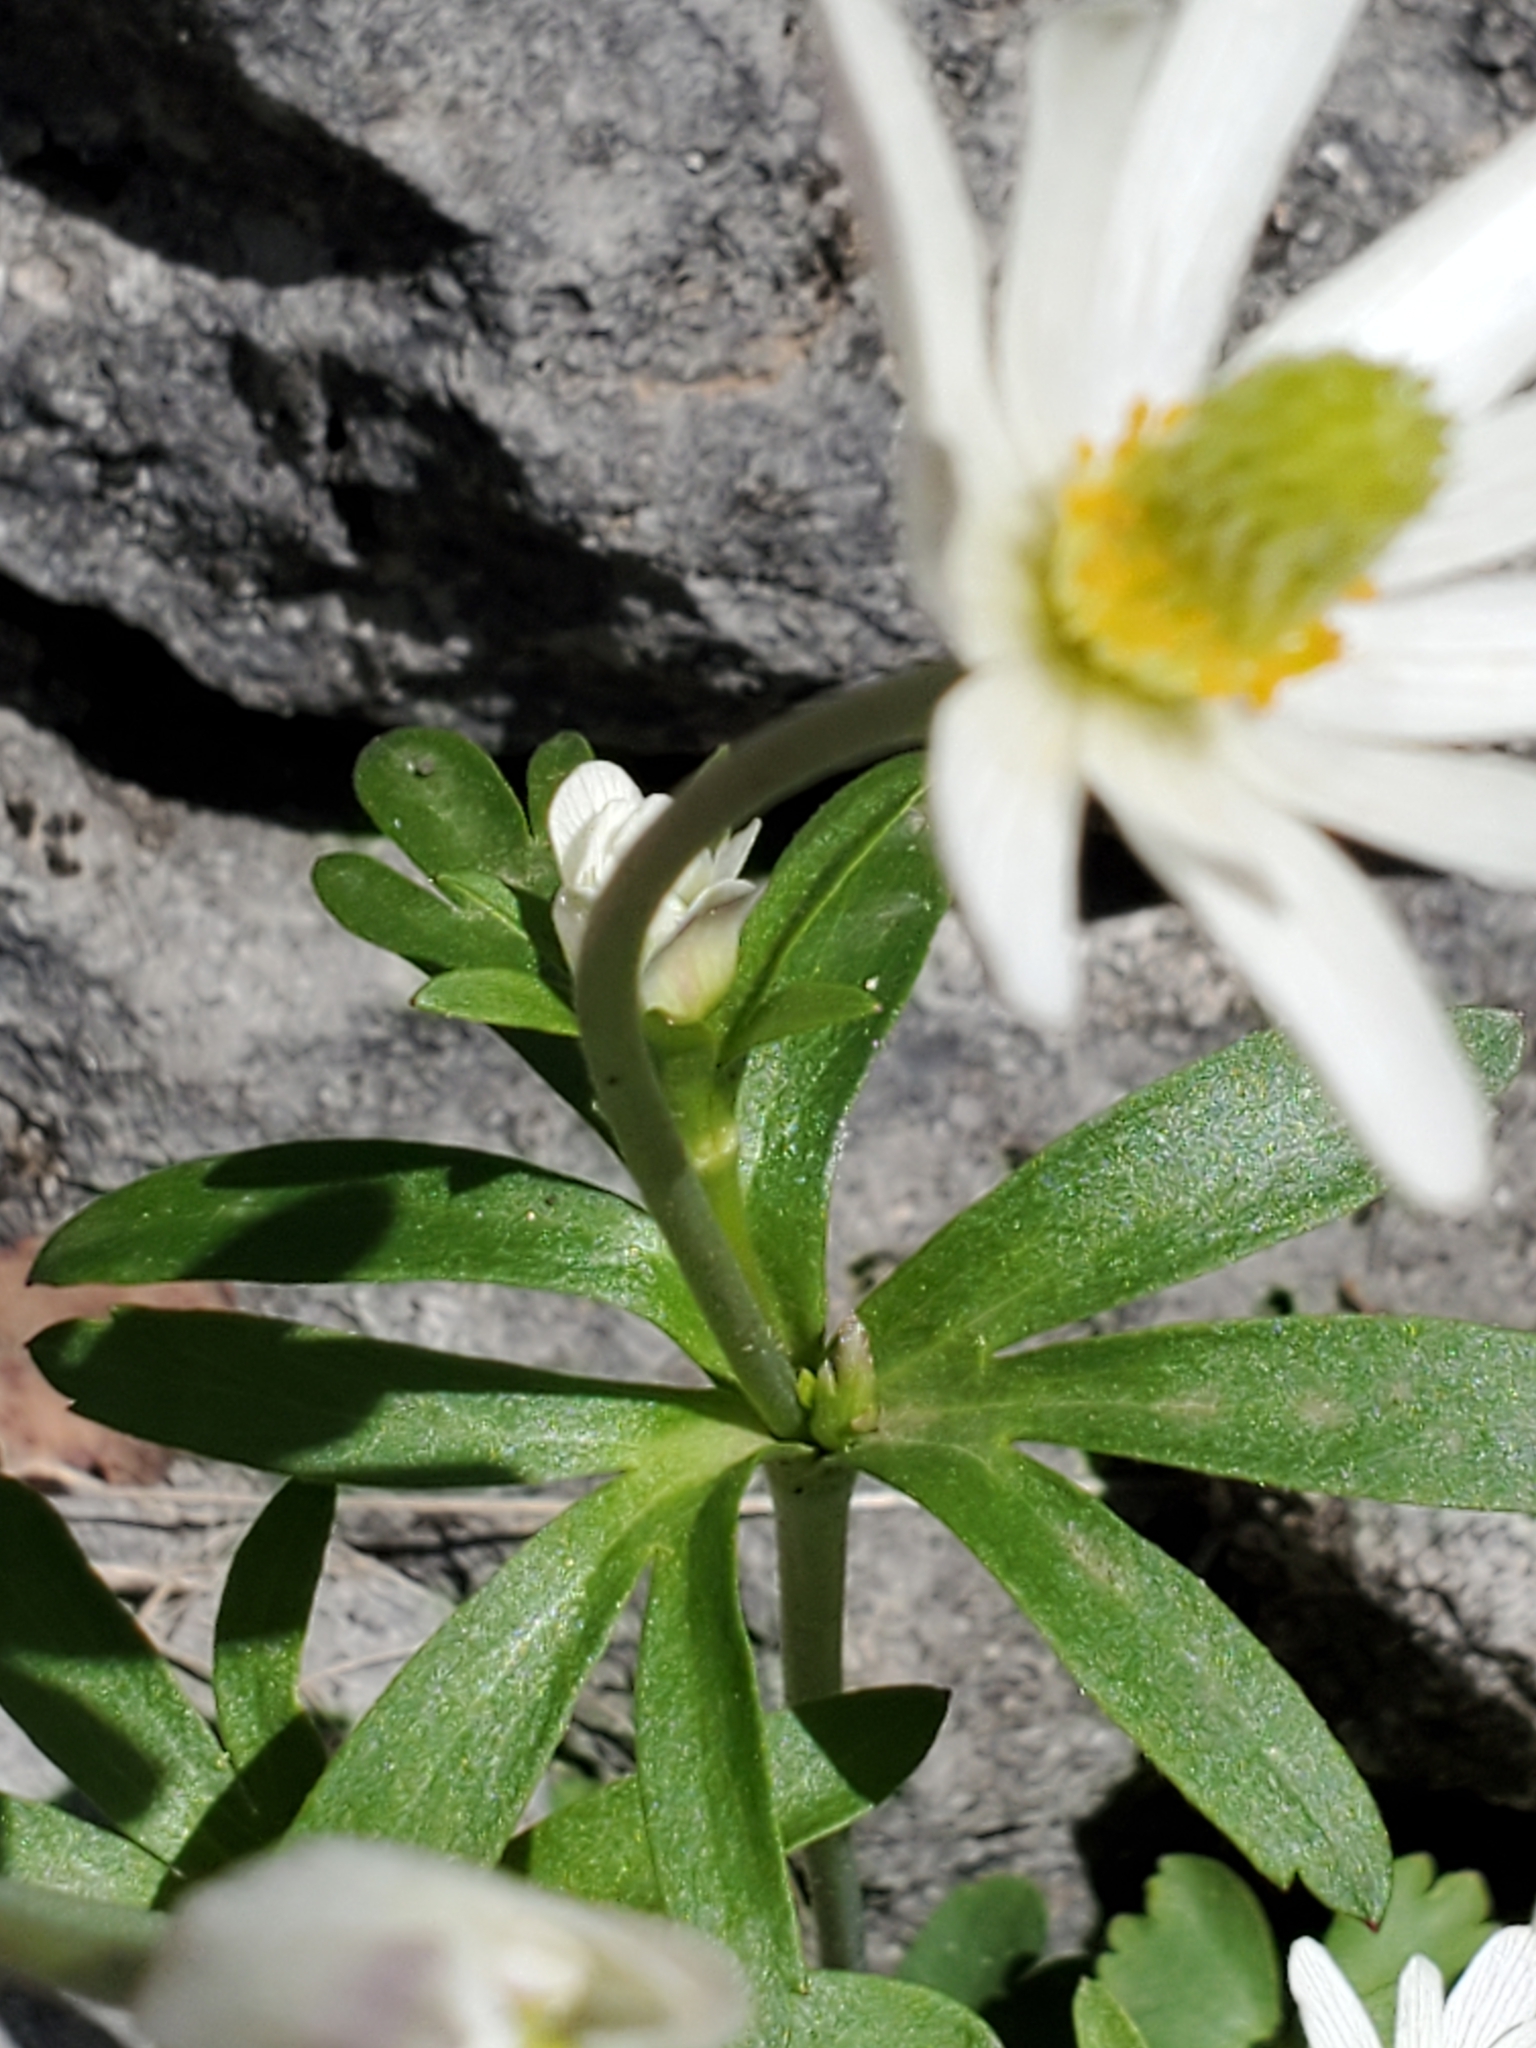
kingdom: Plantae
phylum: Tracheophyta
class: Magnoliopsida
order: Ranunculales
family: Ranunculaceae
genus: Anemone
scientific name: Anemone edwardsiana
